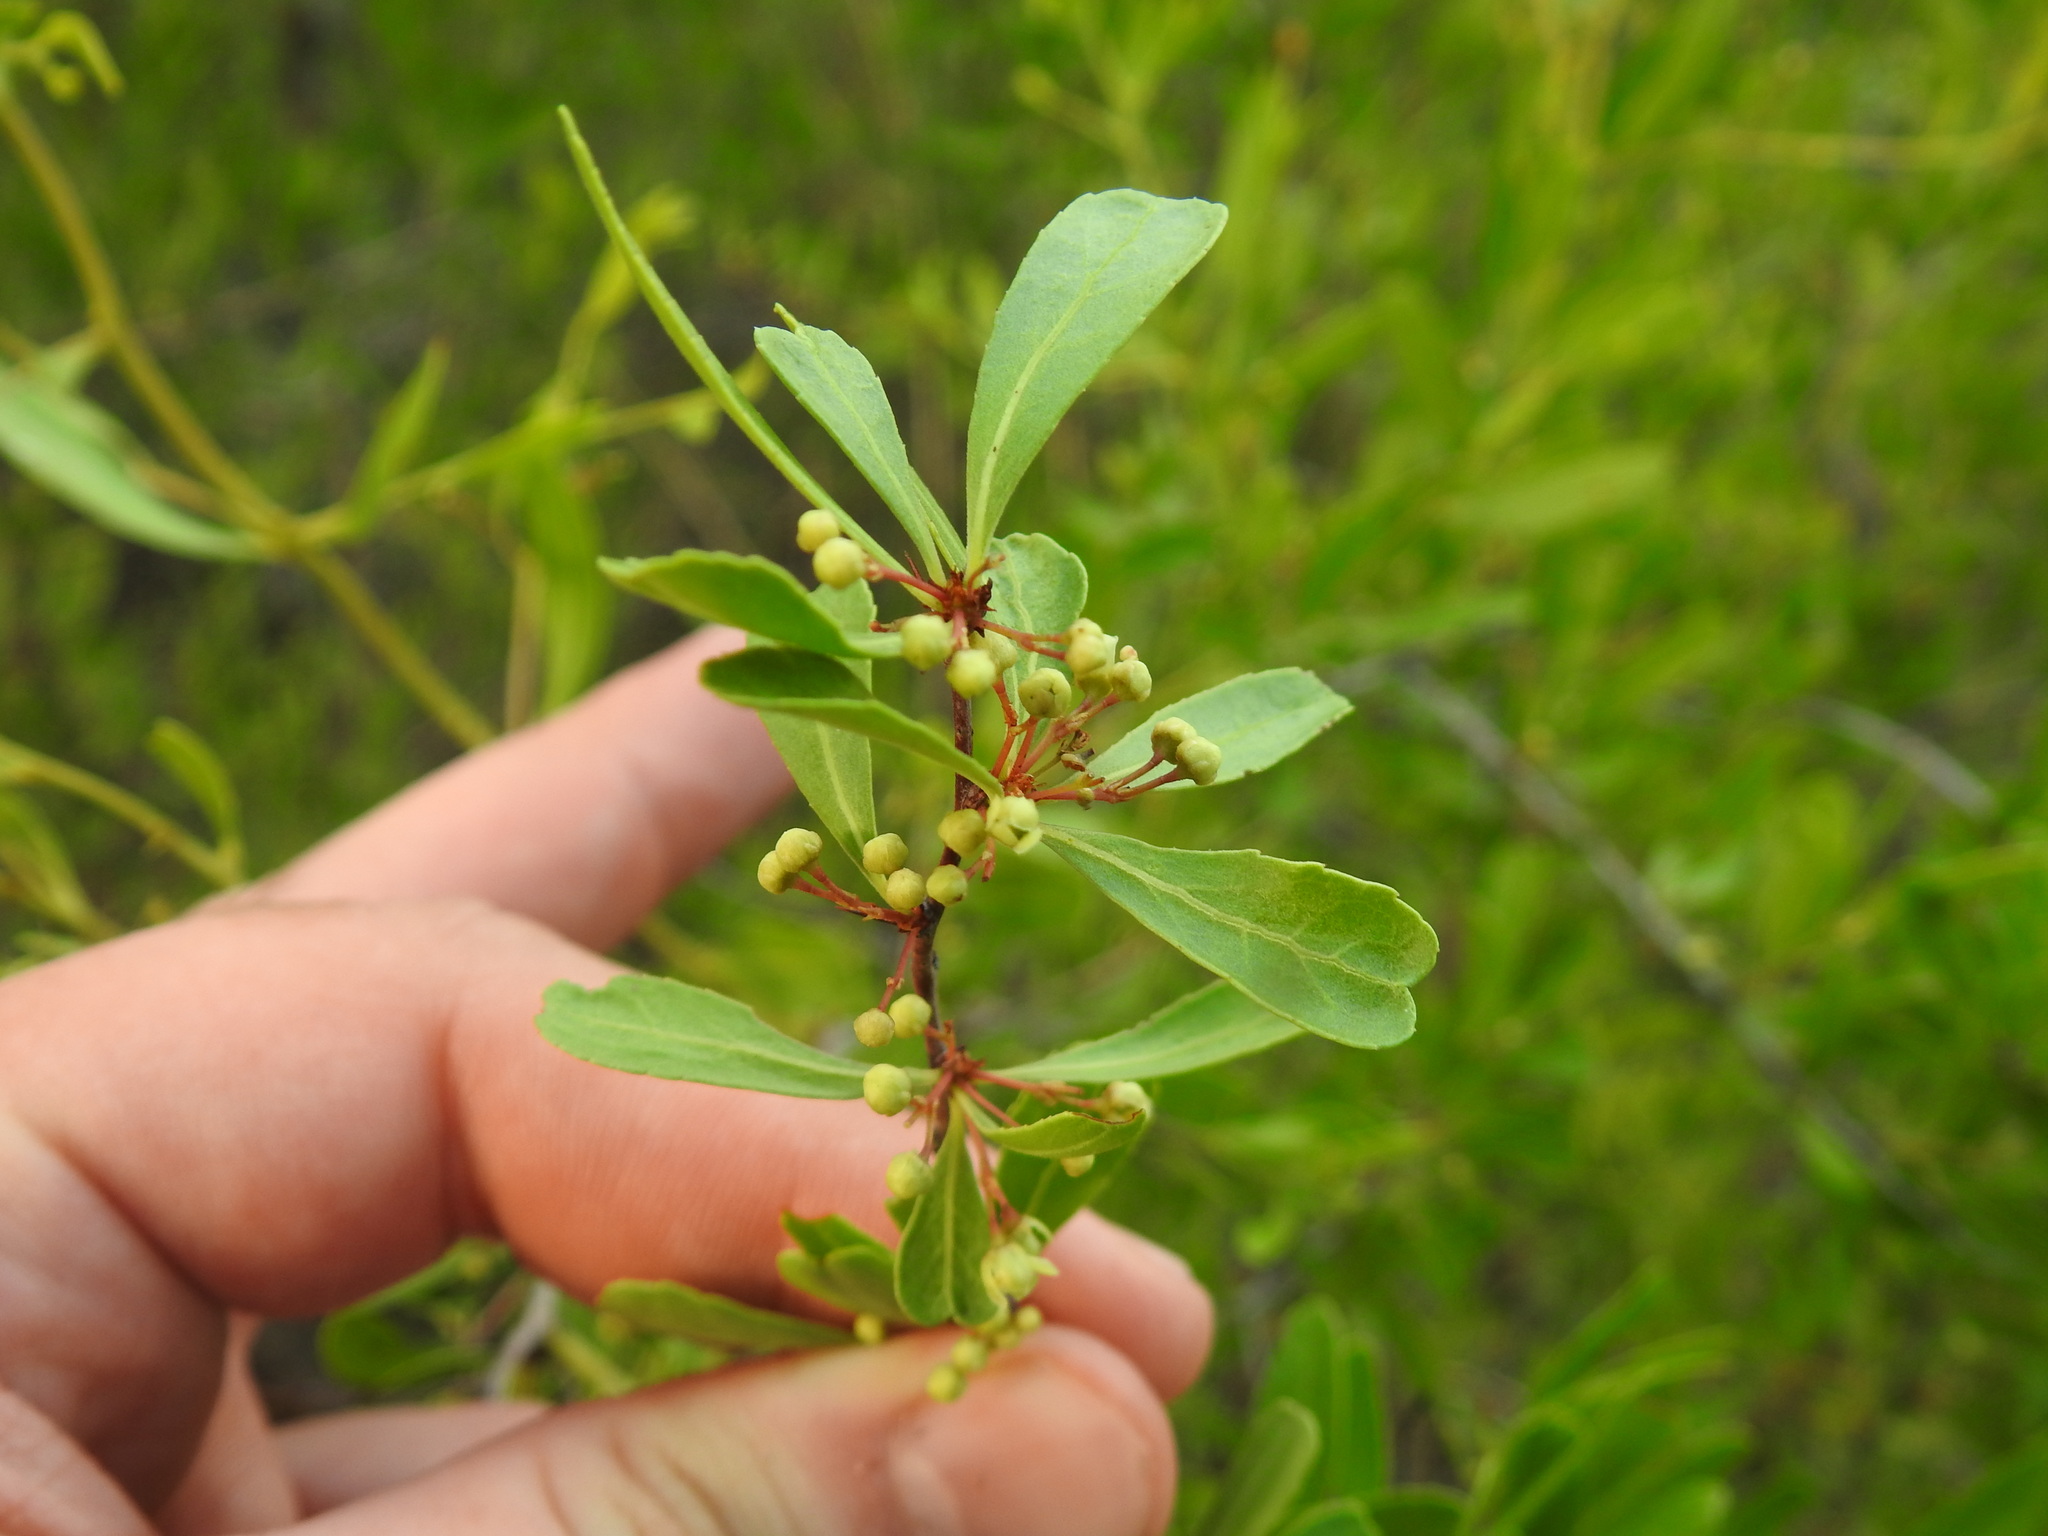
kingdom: Plantae
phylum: Tracheophyta
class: Magnoliopsida
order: Celastrales
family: Celastraceae
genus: Gymnosporia
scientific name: Gymnosporia tenuispina
